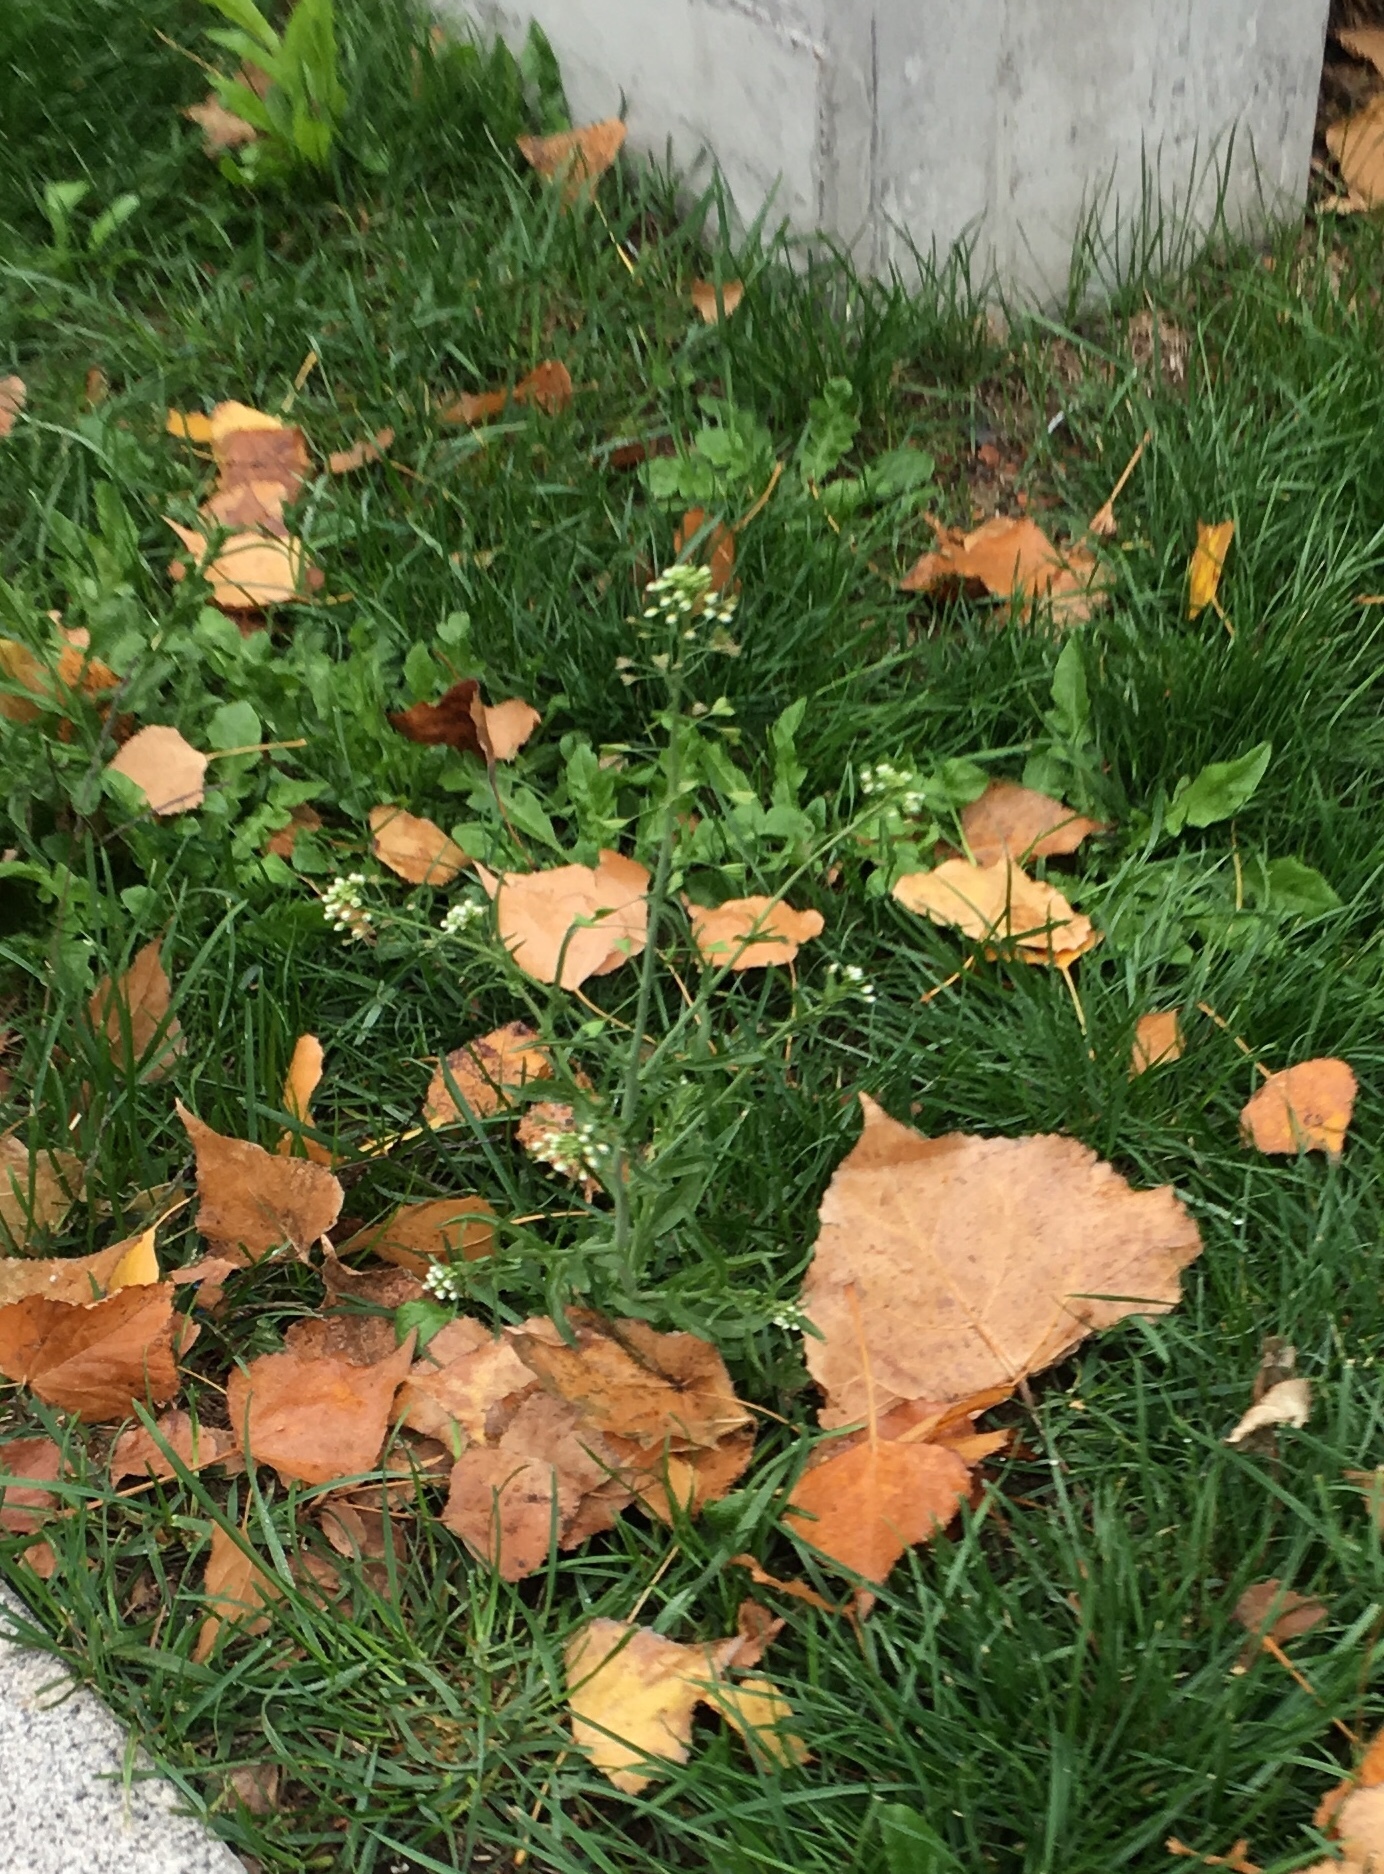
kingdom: Plantae
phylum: Tracheophyta
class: Magnoliopsida
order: Brassicales
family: Brassicaceae
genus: Capsella
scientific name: Capsella bursa-pastoris
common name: Shepherd's purse
